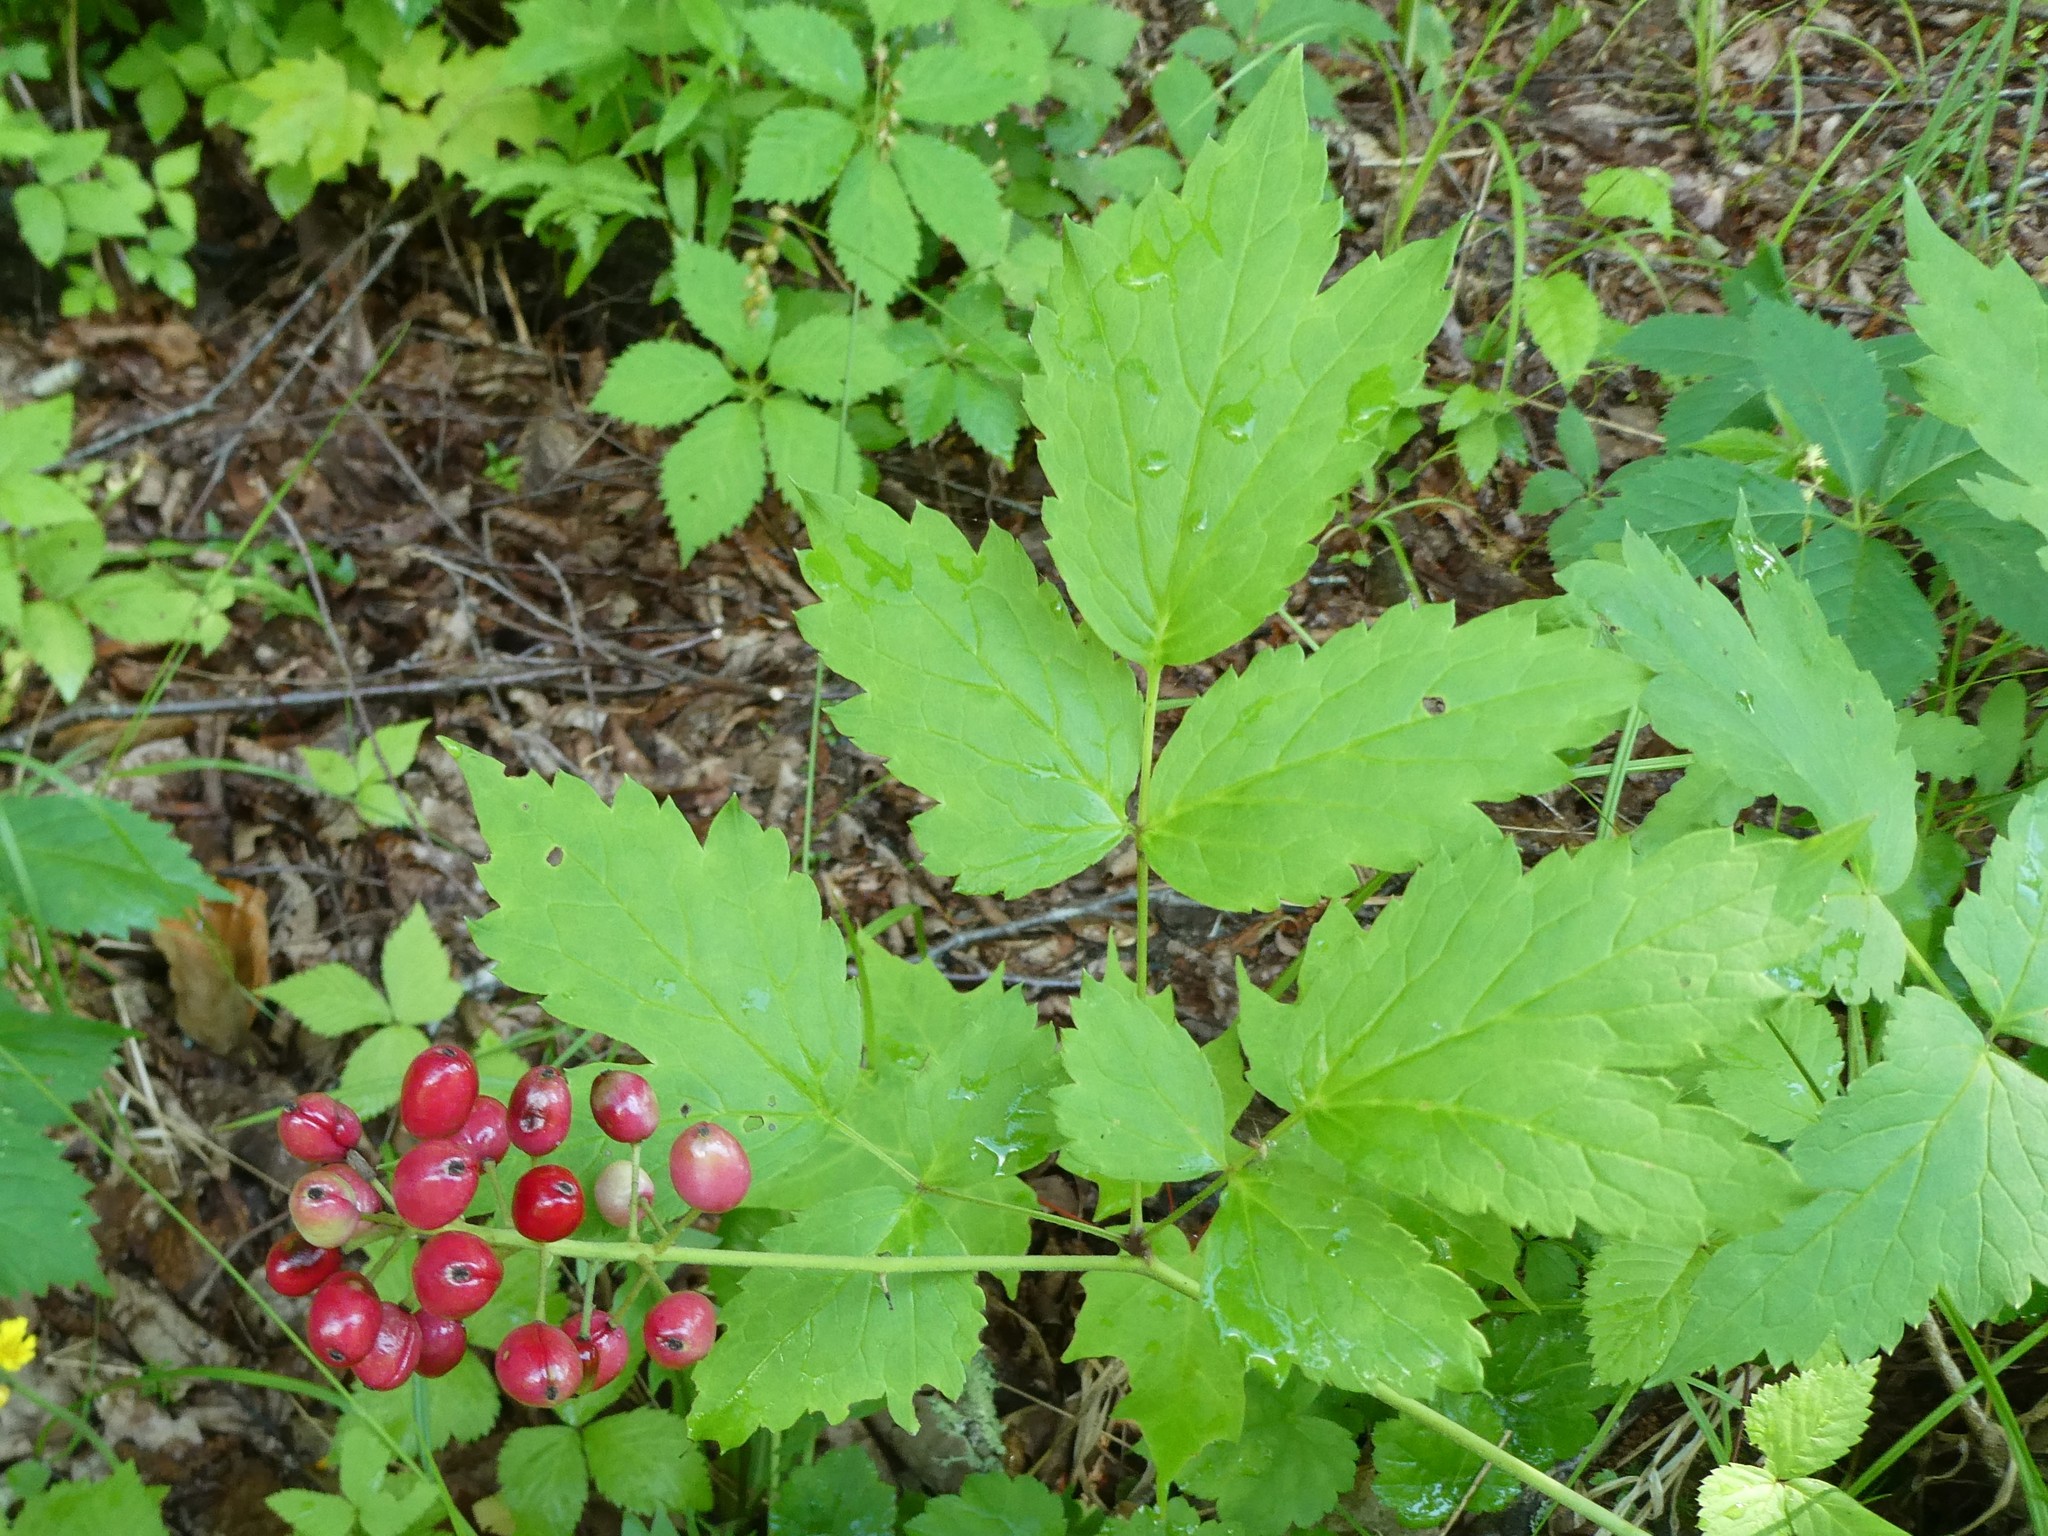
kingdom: Plantae
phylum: Tracheophyta
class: Magnoliopsida
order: Ranunculales
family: Ranunculaceae
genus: Actaea
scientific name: Actaea rubra
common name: Red baneberry
